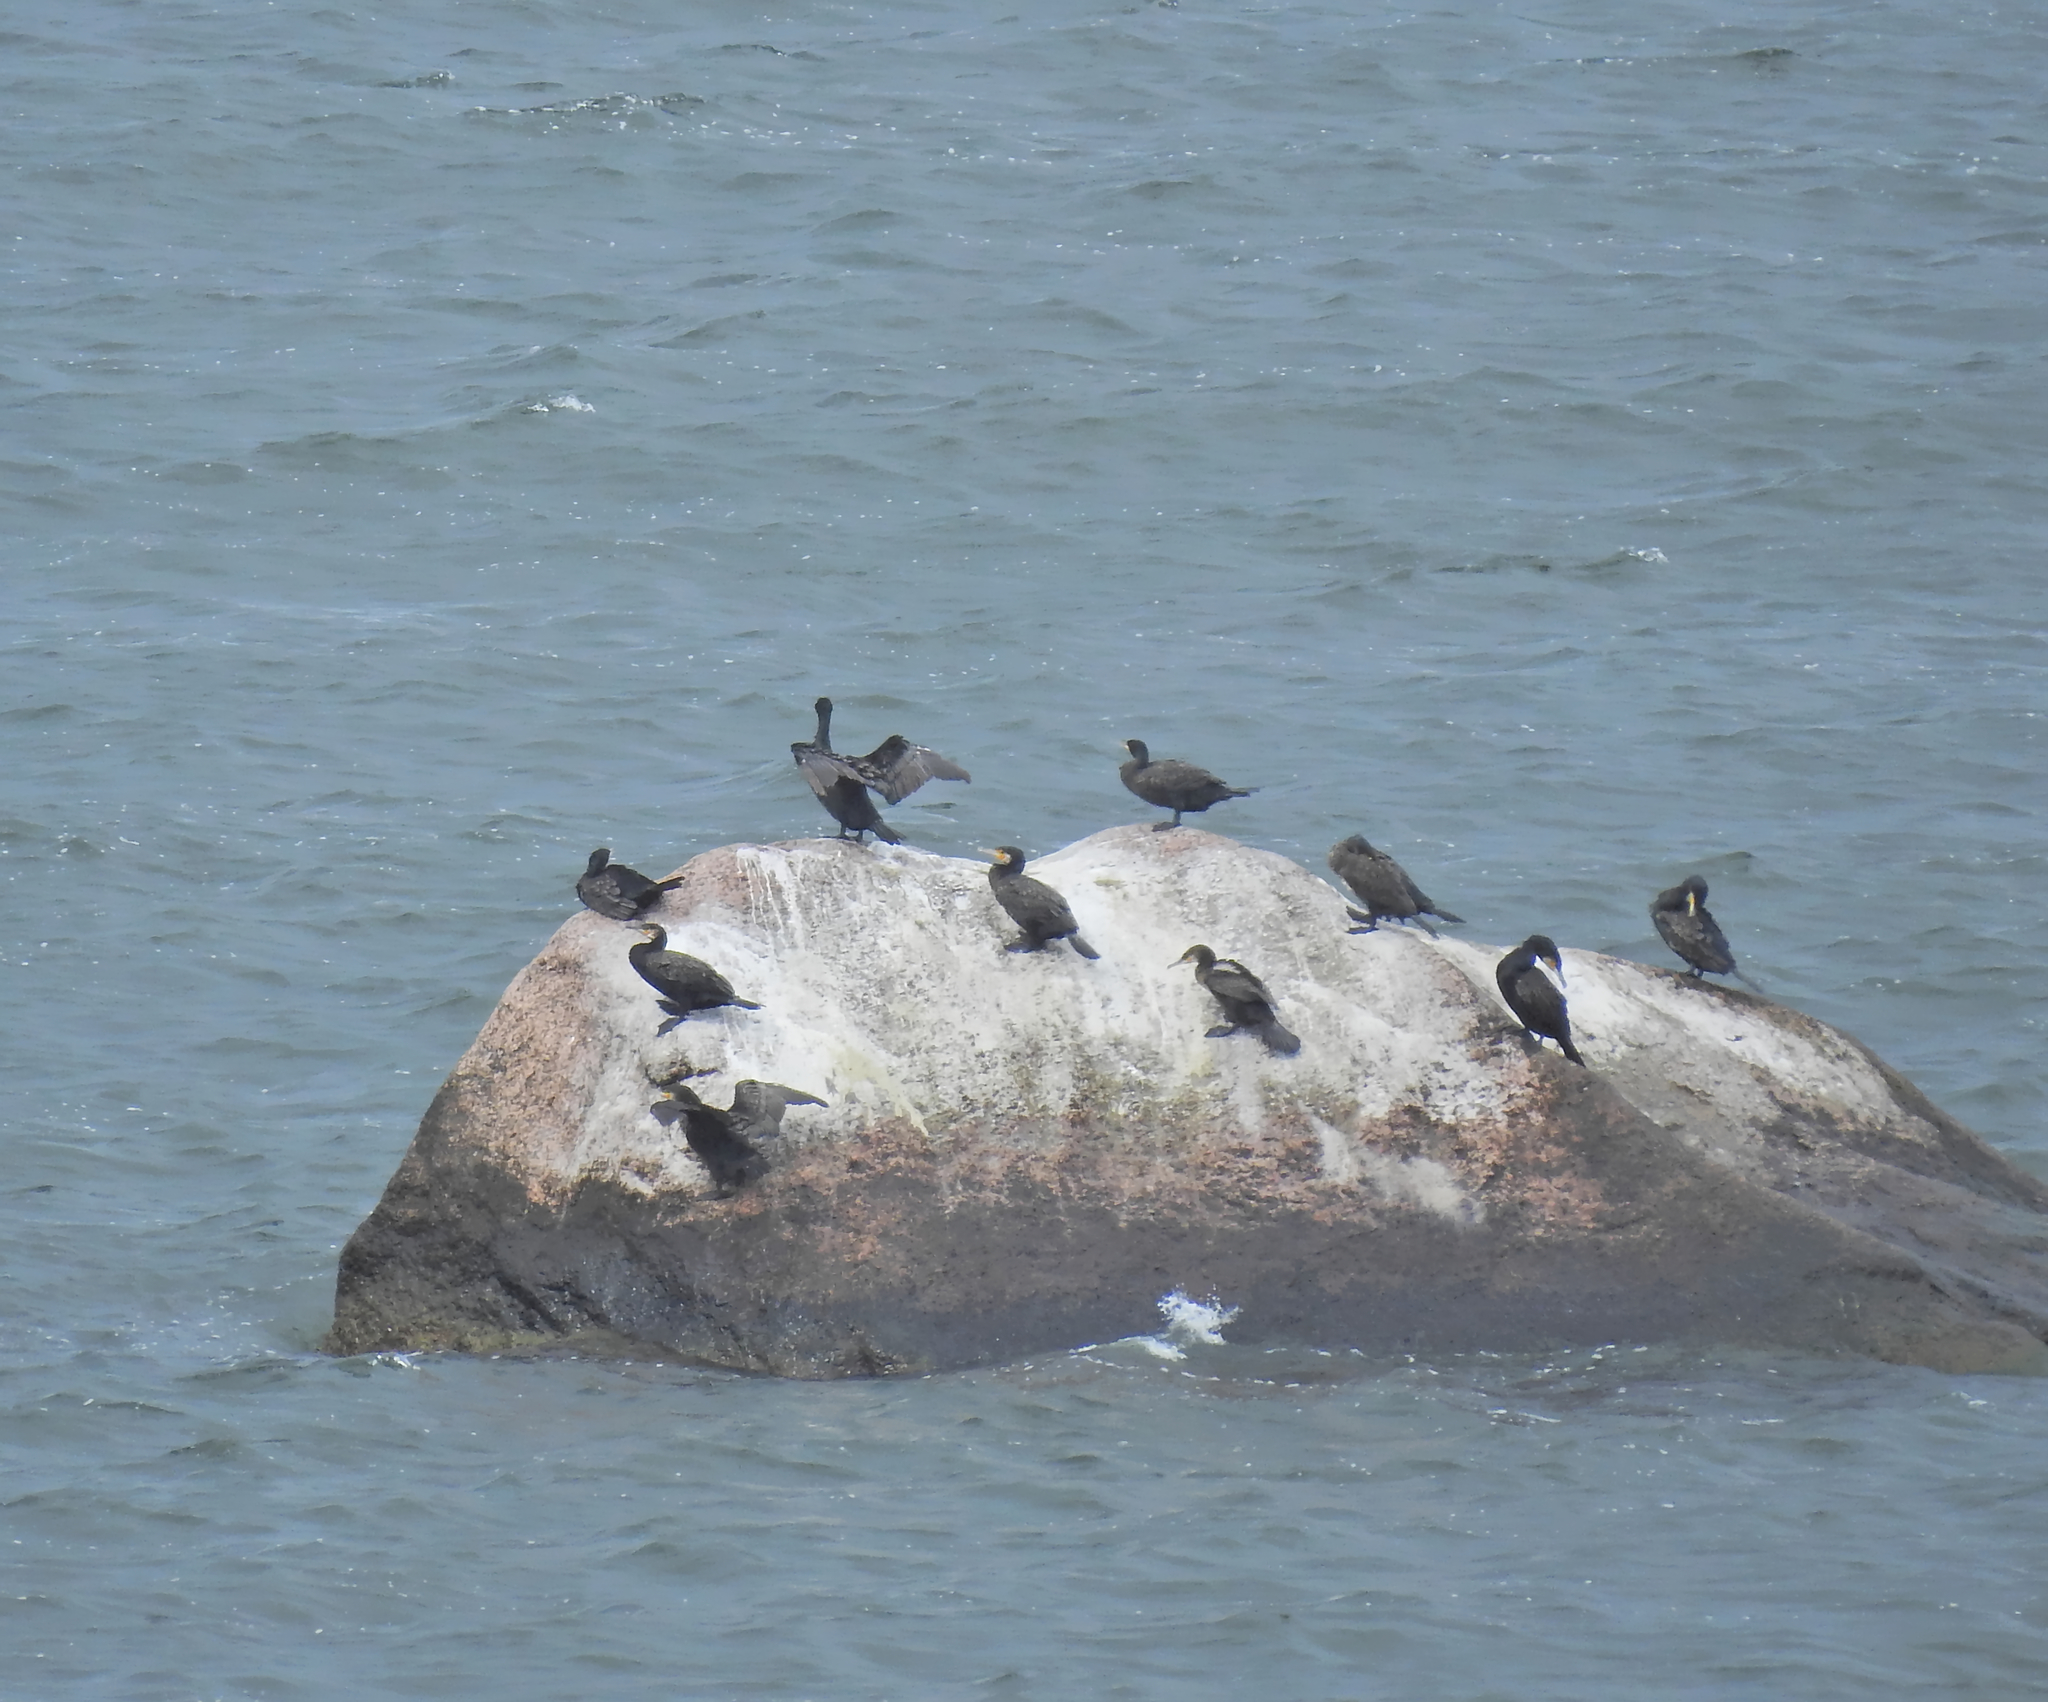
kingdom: Animalia
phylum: Chordata
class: Aves
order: Suliformes
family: Phalacrocoracidae
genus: Phalacrocorax
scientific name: Phalacrocorax carbo
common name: Great cormorant
